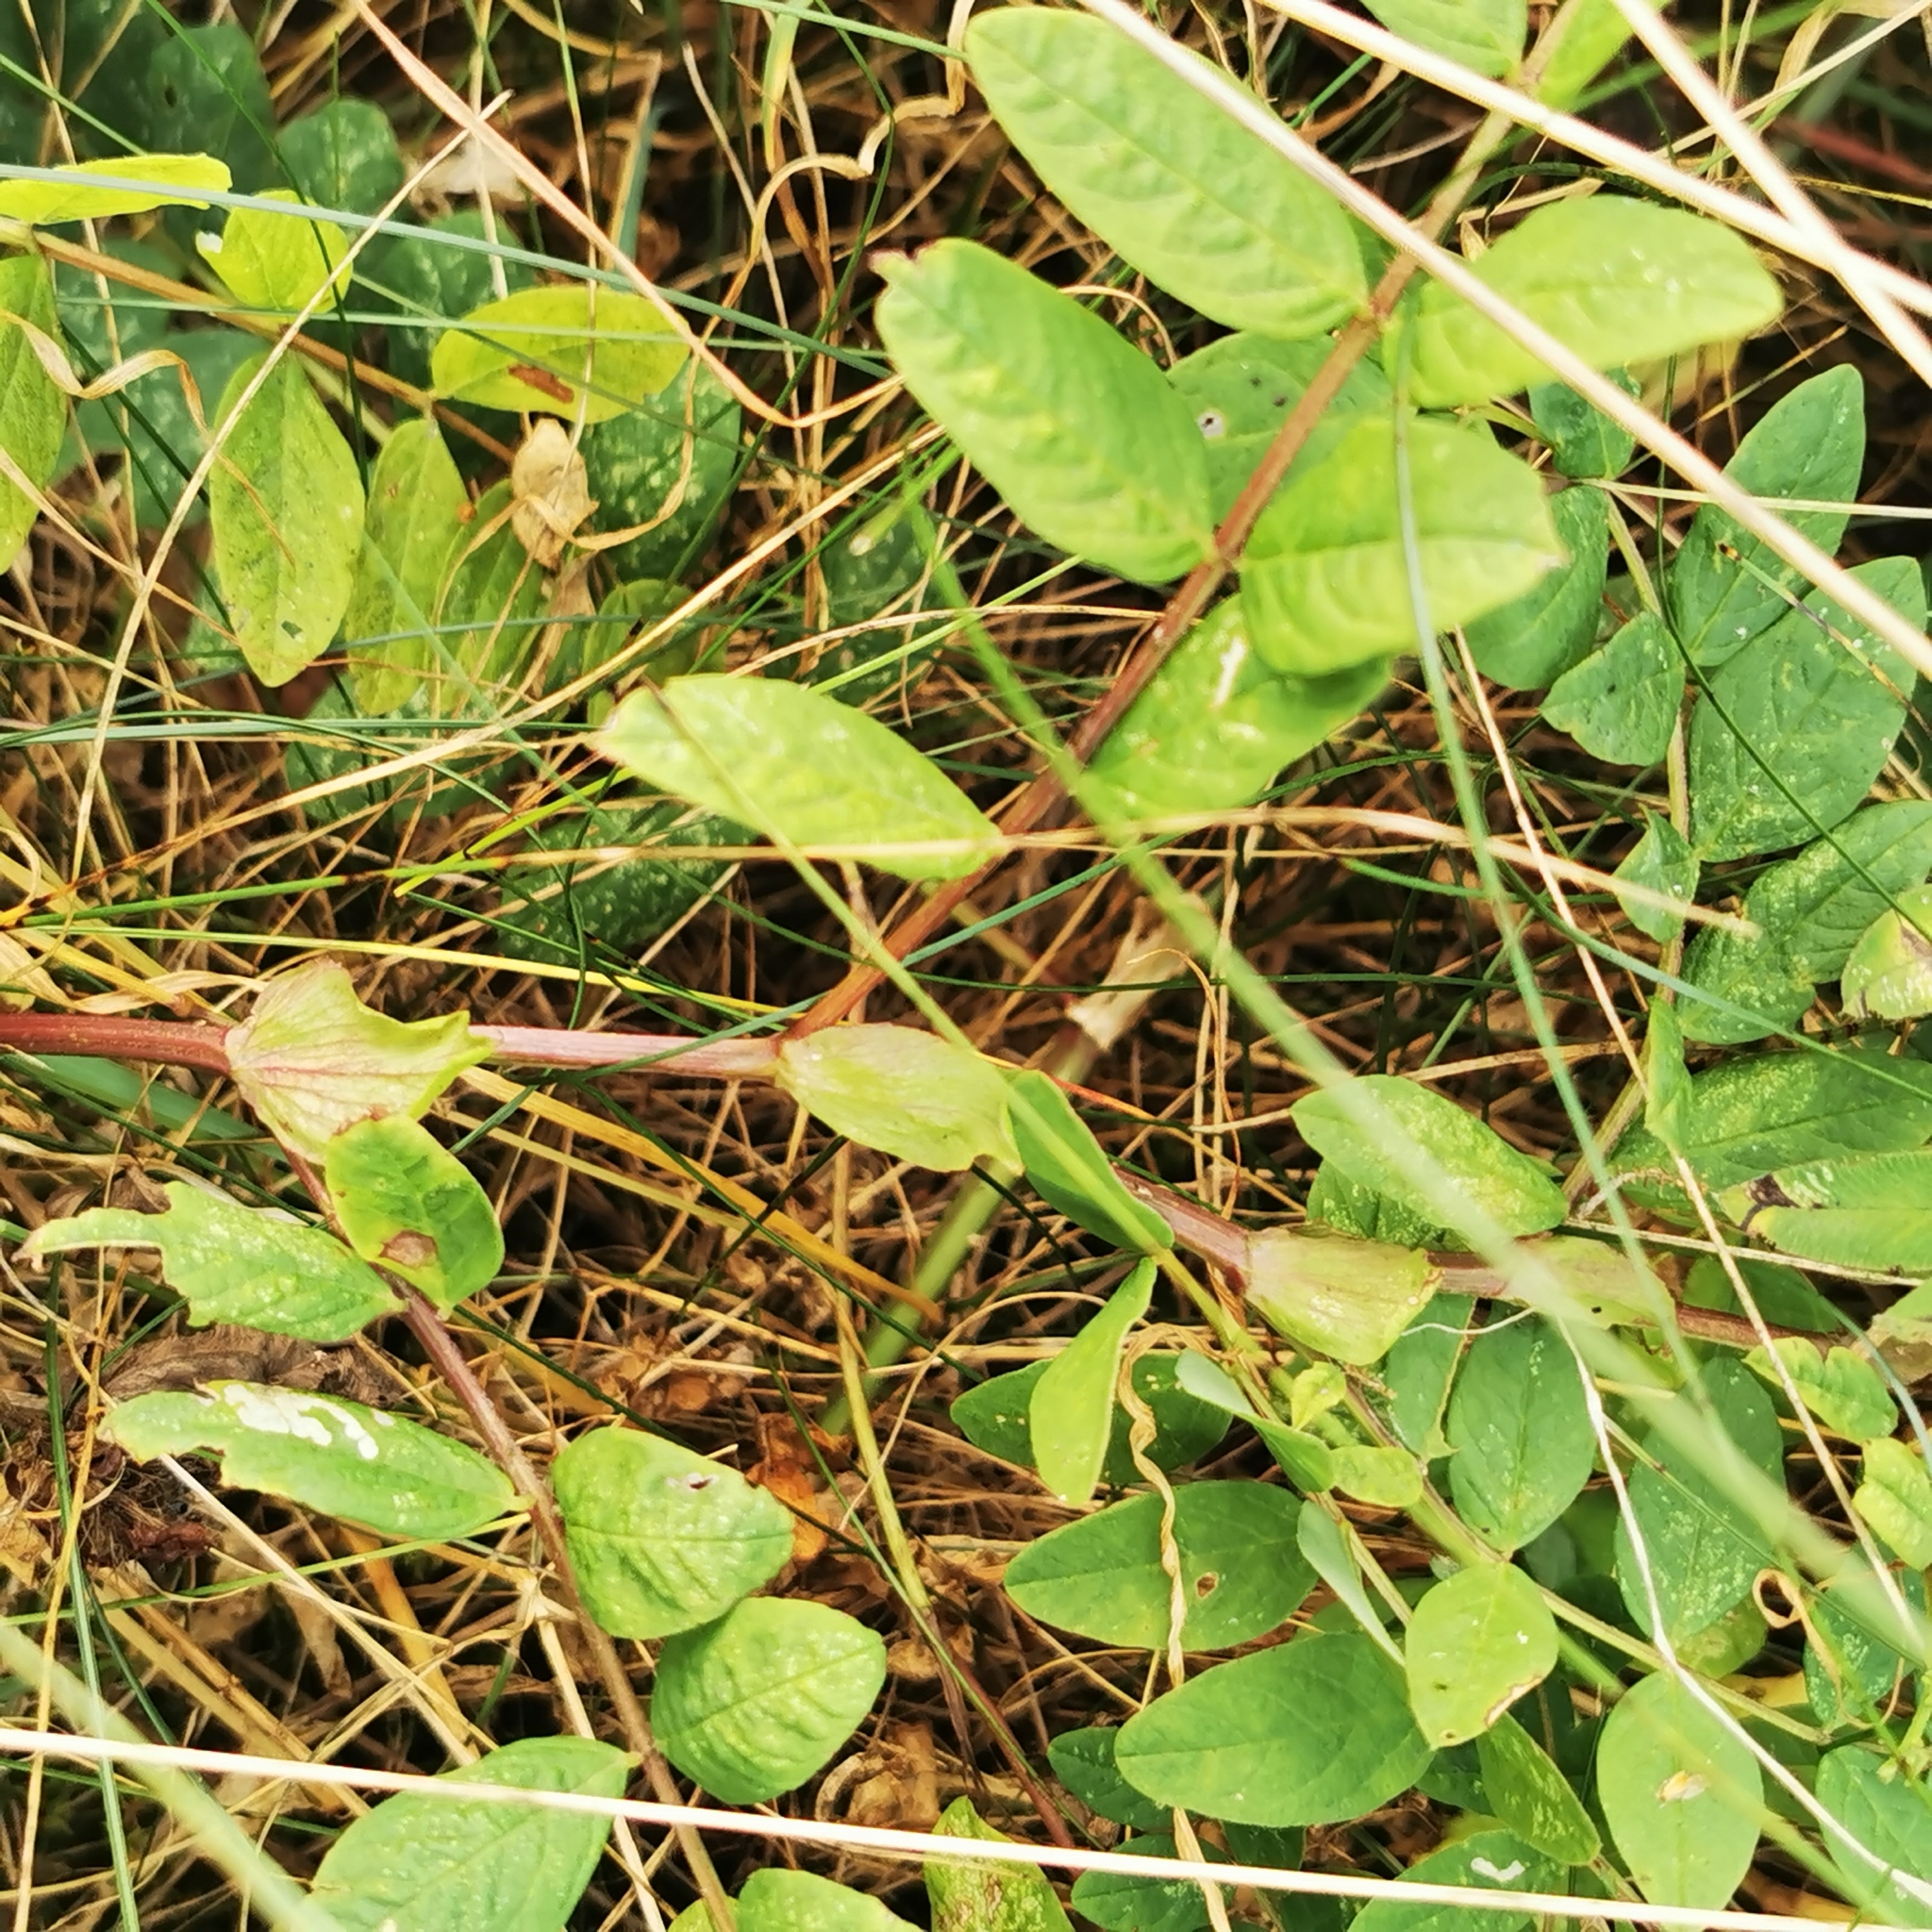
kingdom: Plantae
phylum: Tracheophyta
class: Magnoliopsida
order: Fabales
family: Fabaceae
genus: Astragalus
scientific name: Astragalus glycyphyllos
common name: Wild liquorice
